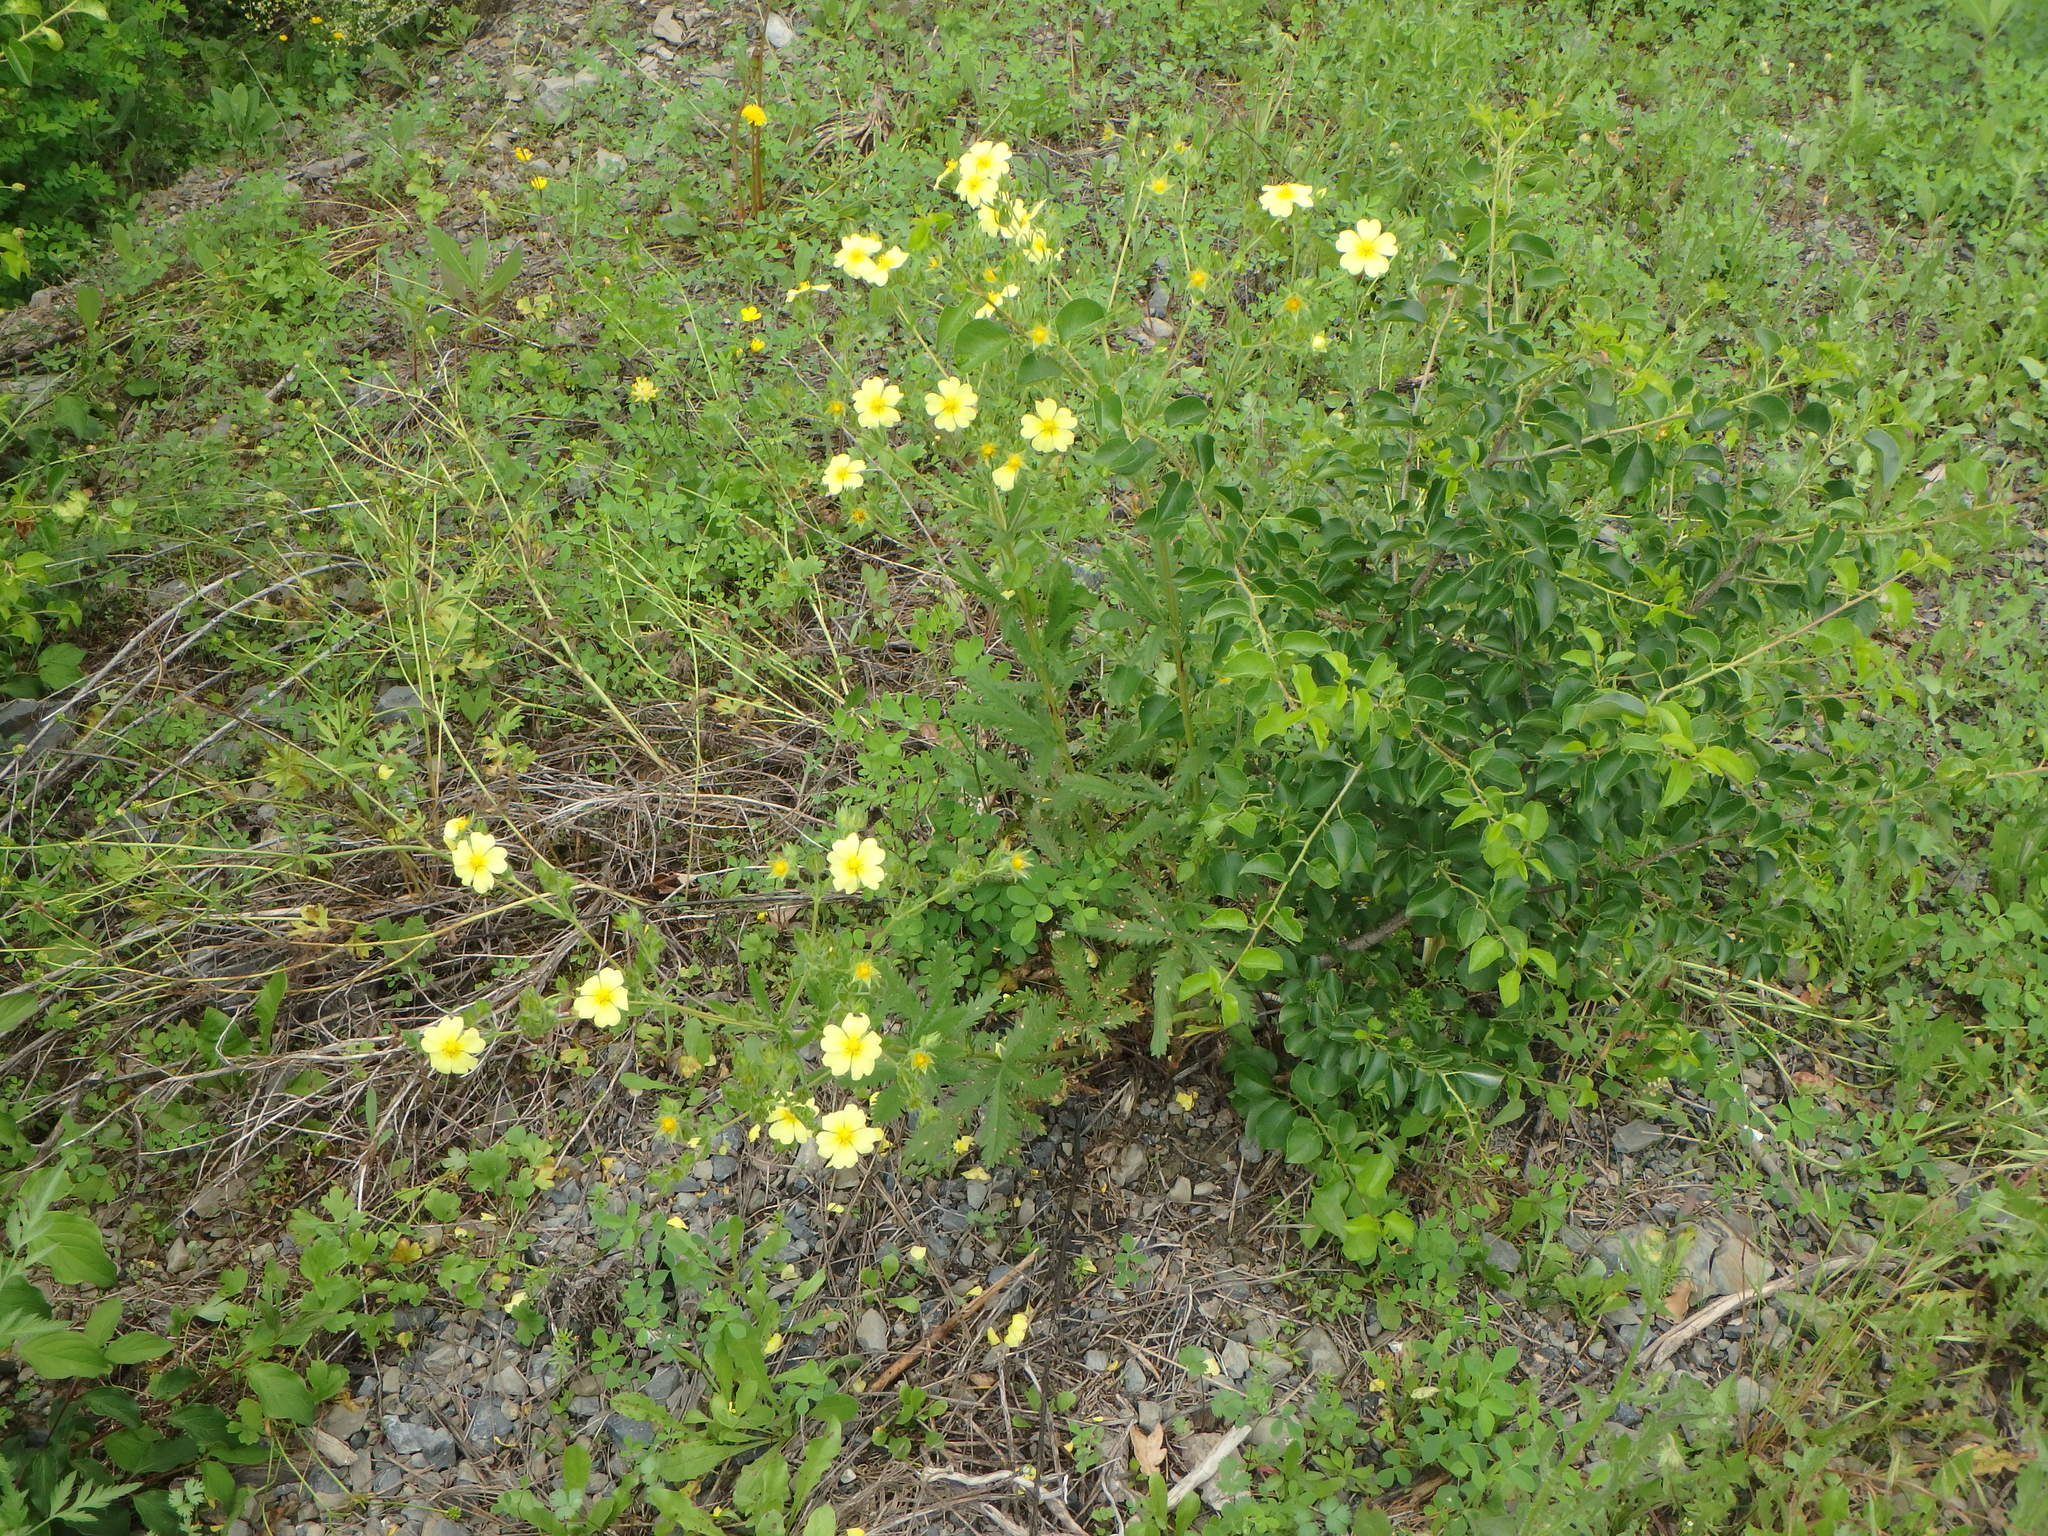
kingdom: Plantae
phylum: Tracheophyta
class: Magnoliopsida
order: Rosales
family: Rosaceae
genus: Potentilla
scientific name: Potentilla recta
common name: Sulphur cinquefoil
